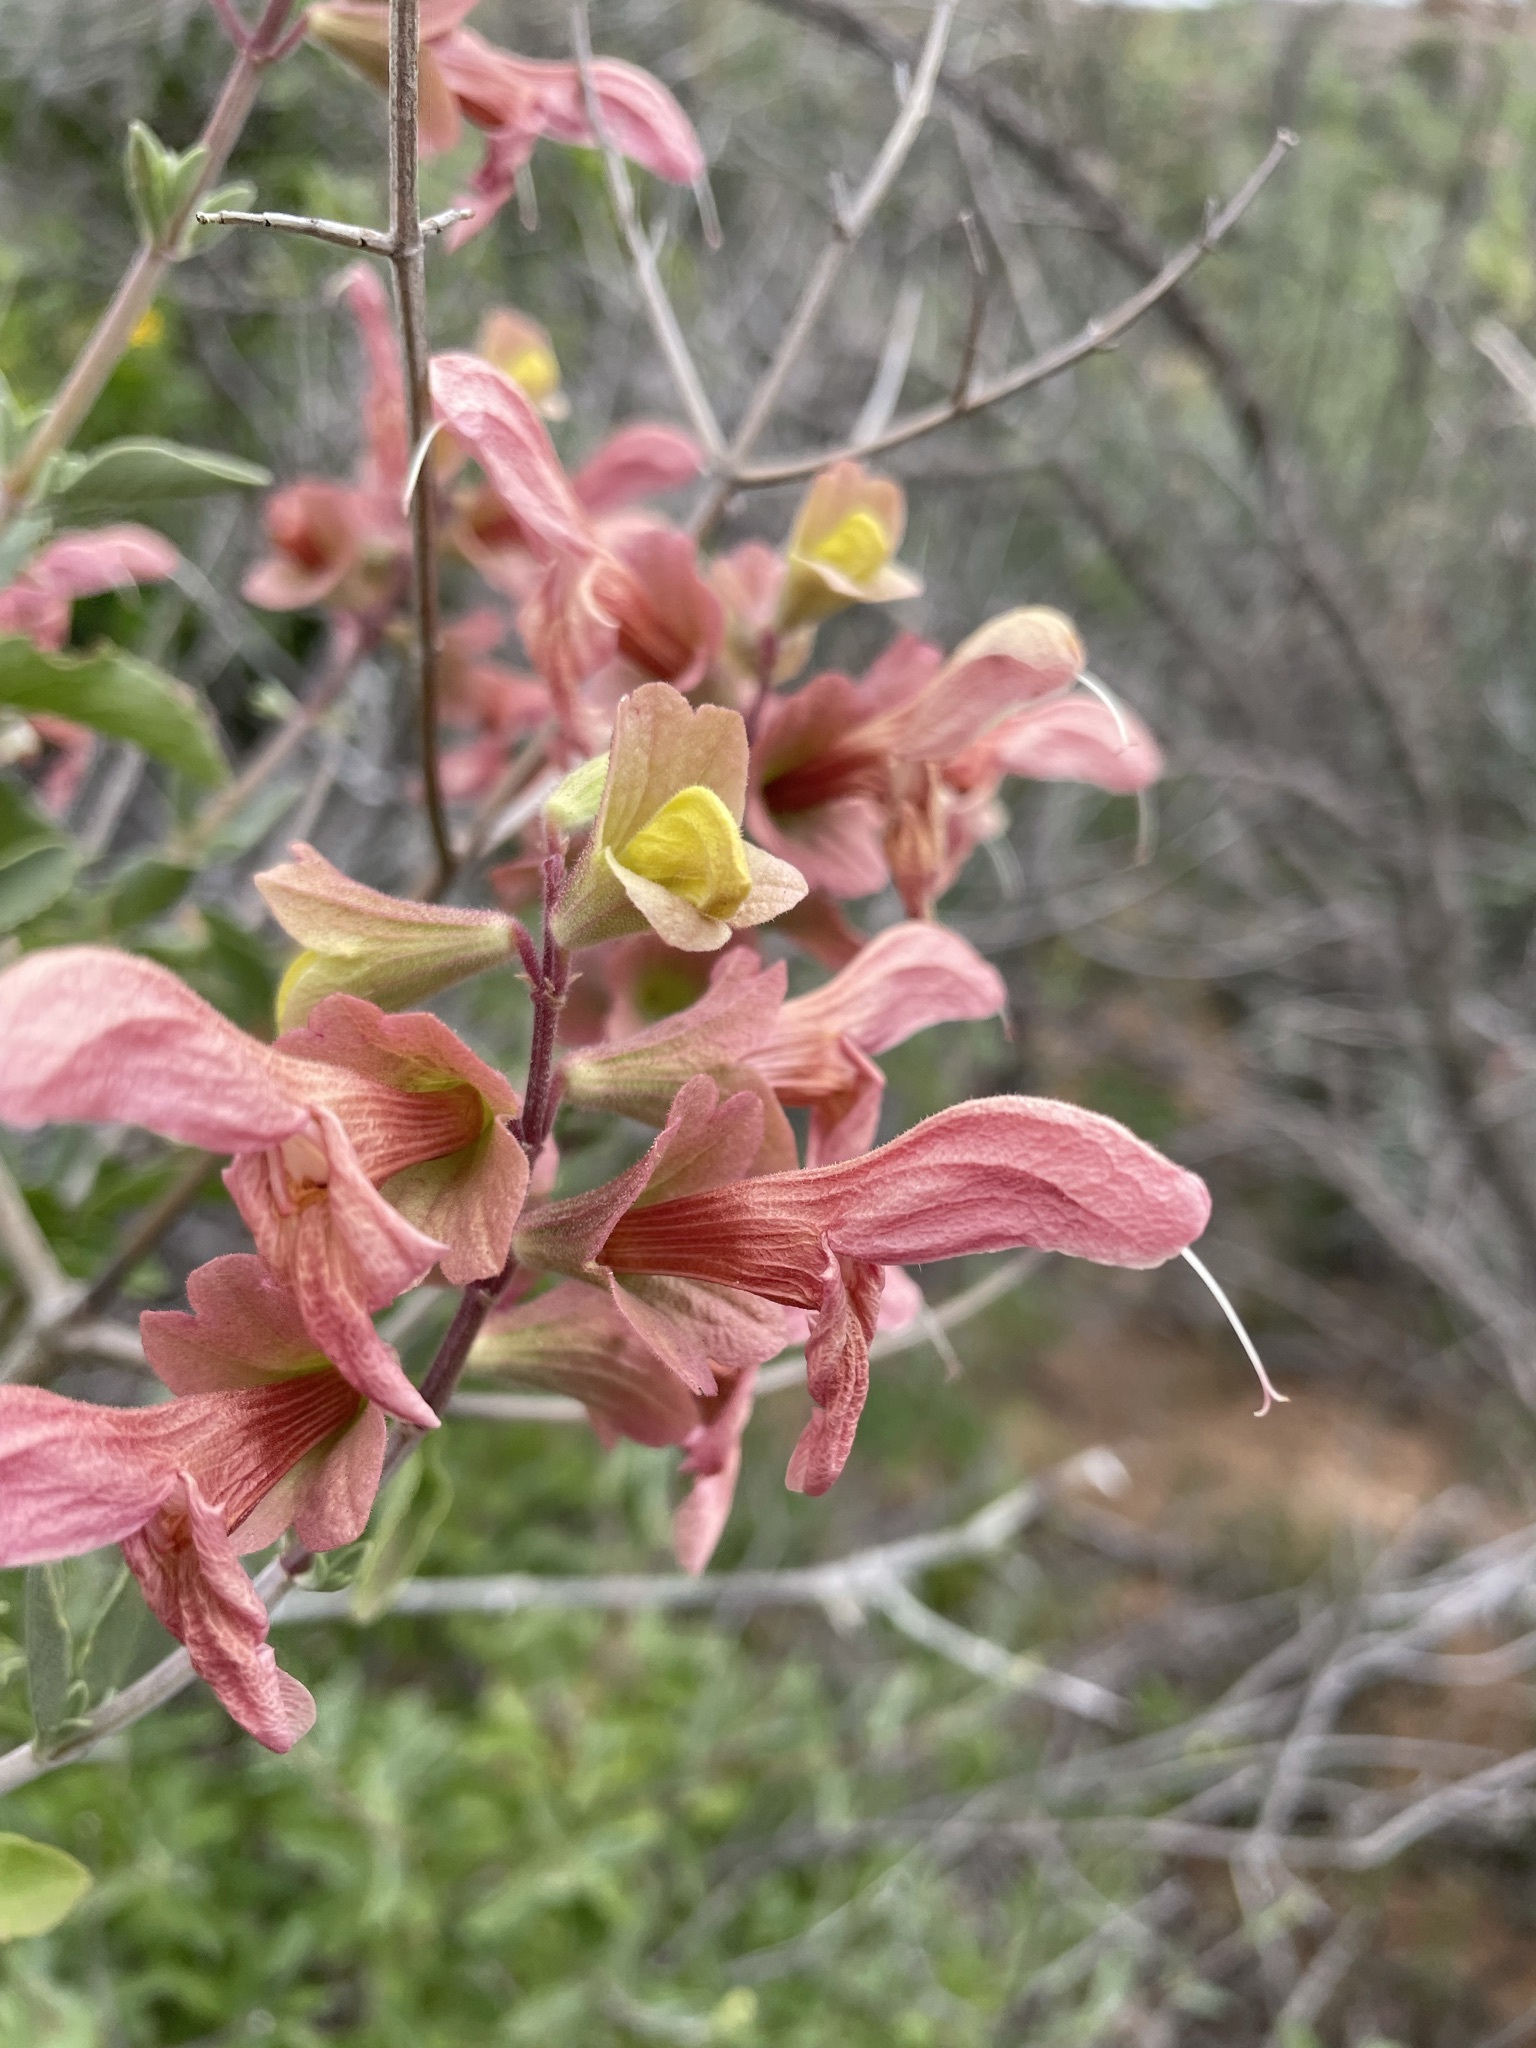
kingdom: Plantae
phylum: Tracheophyta
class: Magnoliopsida
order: Lamiales
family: Lamiaceae
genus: Salvia
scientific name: Salvia lanceolata
